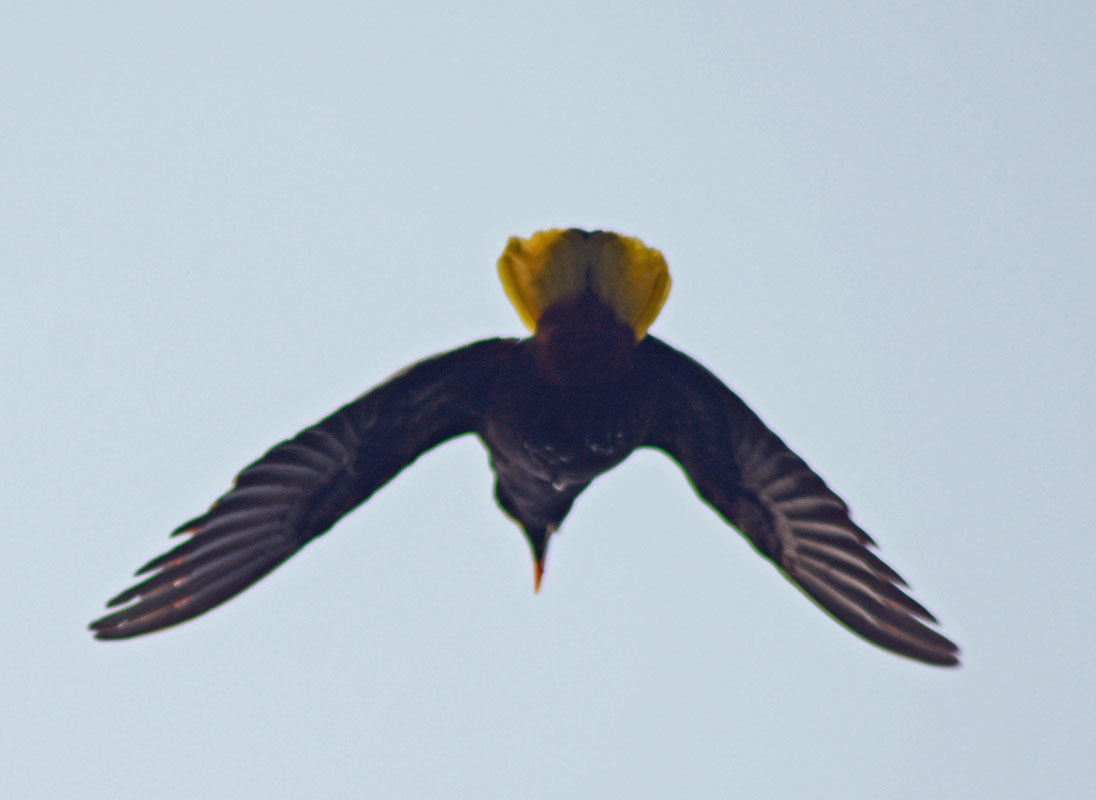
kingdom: Animalia
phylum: Chordata
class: Aves
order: Passeriformes
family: Icteridae
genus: Psarocolius
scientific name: Psarocolius montezuma
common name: Montezuma oropendola
